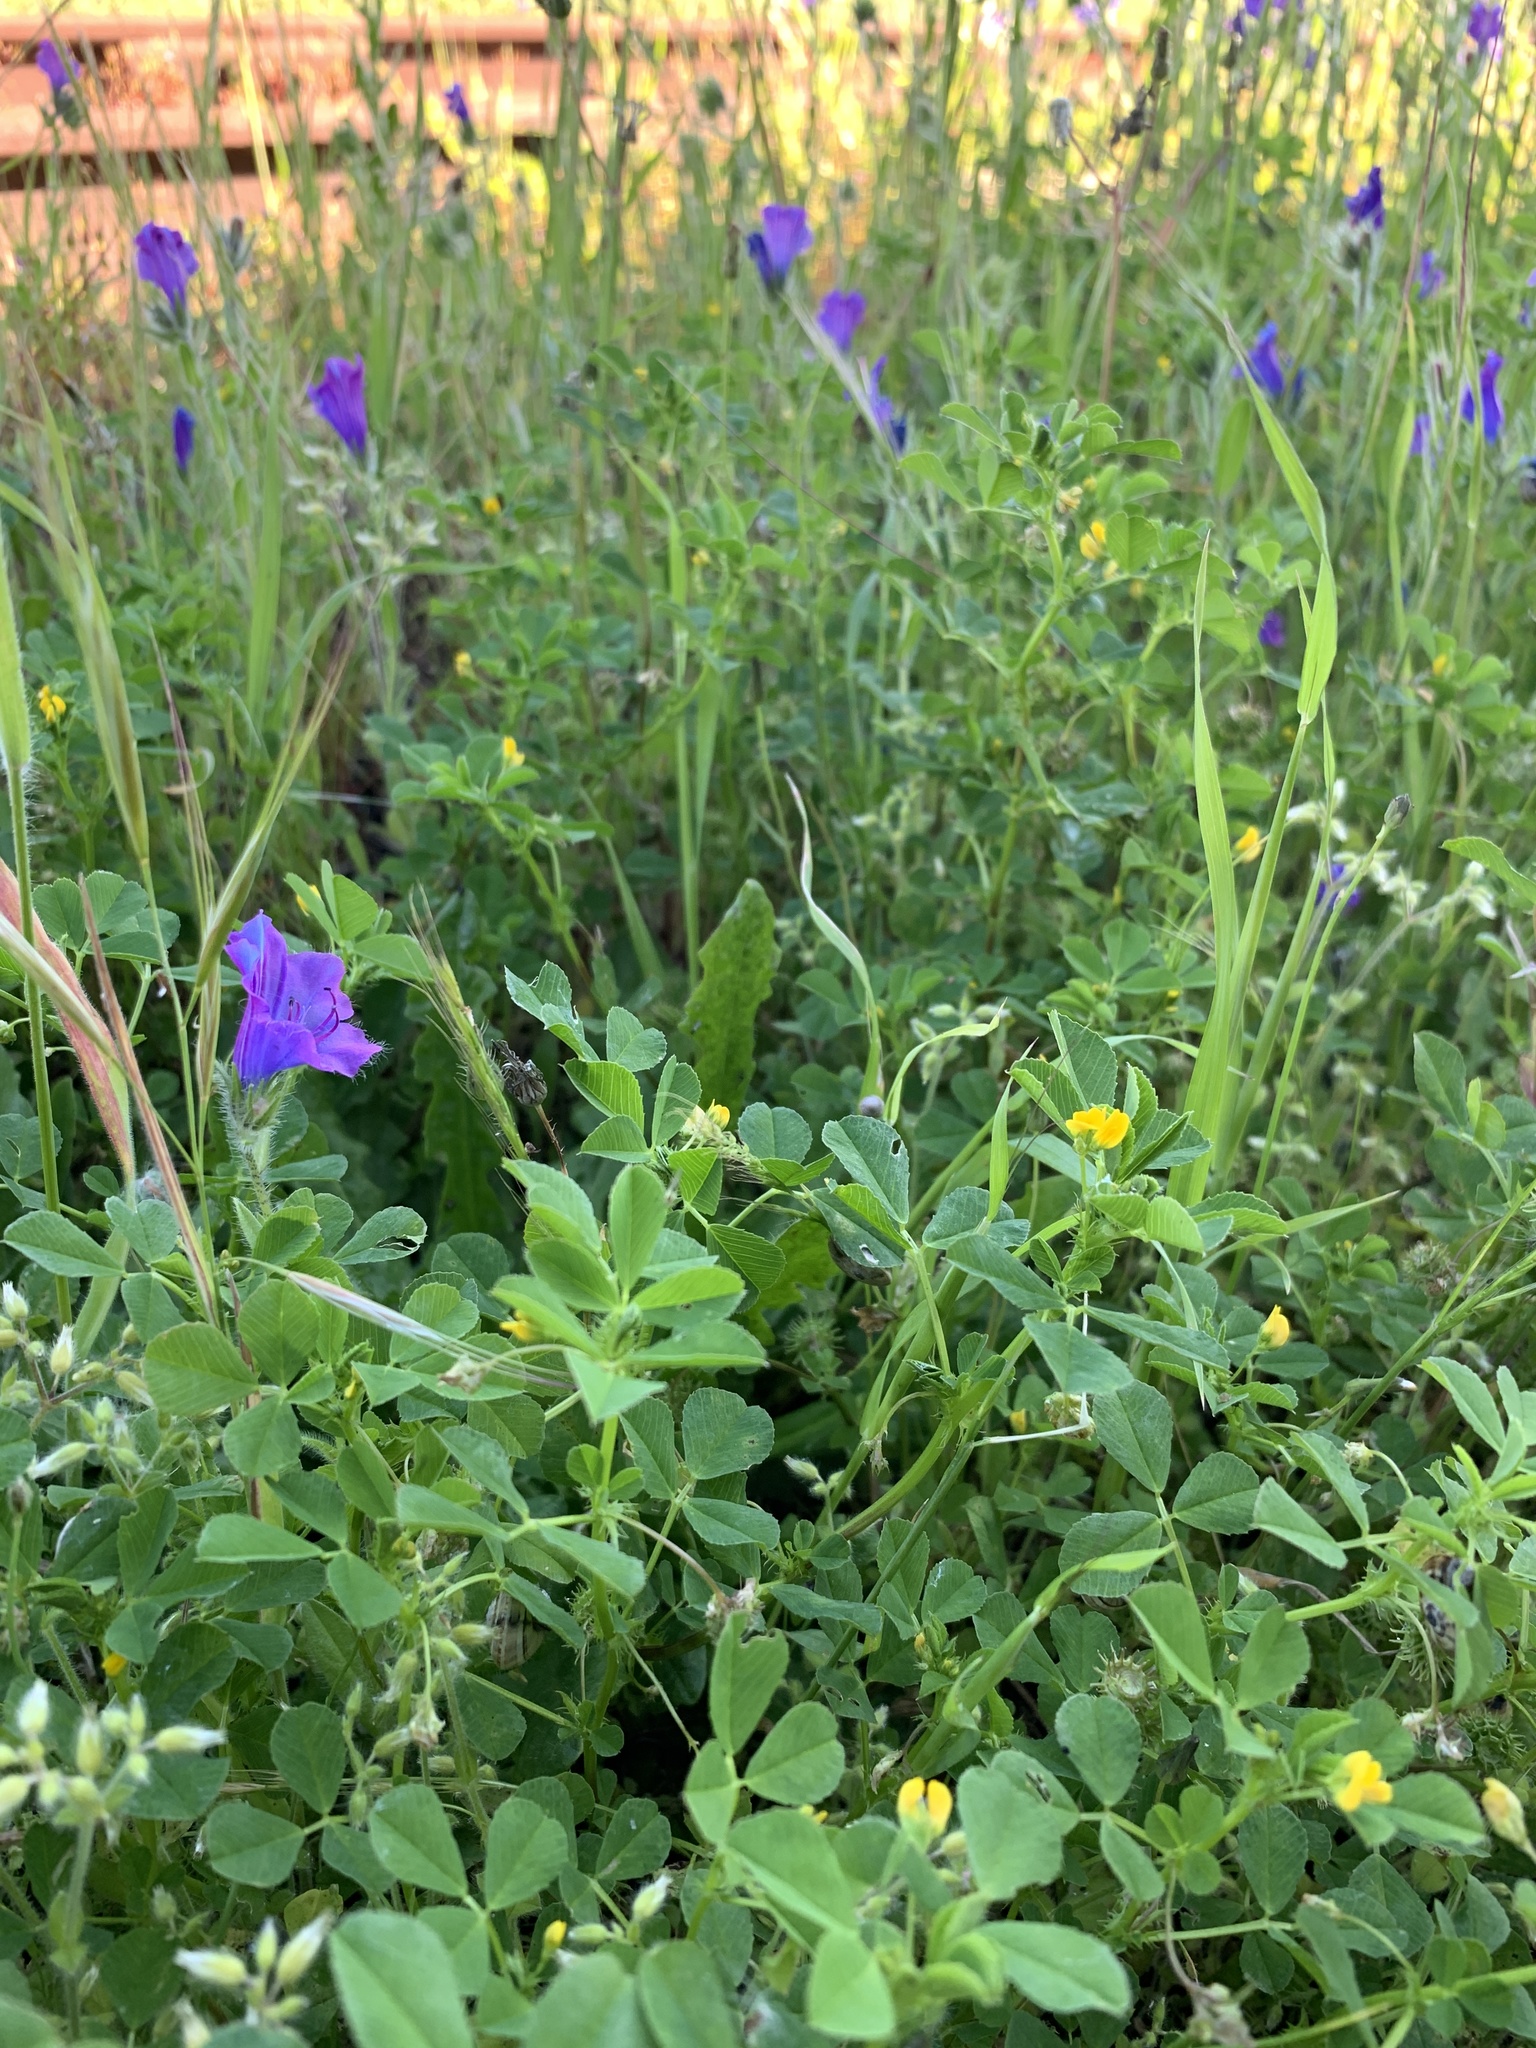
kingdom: Plantae
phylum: Tracheophyta
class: Magnoliopsida
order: Fabales
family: Fabaceae
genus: Medicago
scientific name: Medicago polymorpha
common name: Burclover
